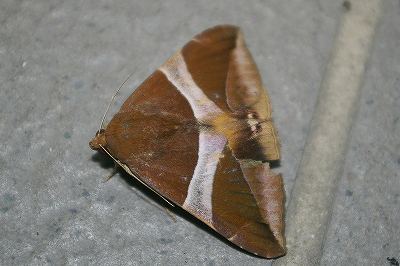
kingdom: Animalia
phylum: Arthropoda
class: Insecta
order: Lepidoptera
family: Erebidae
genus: Bastilla
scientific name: Bastilla fulvotaenia
